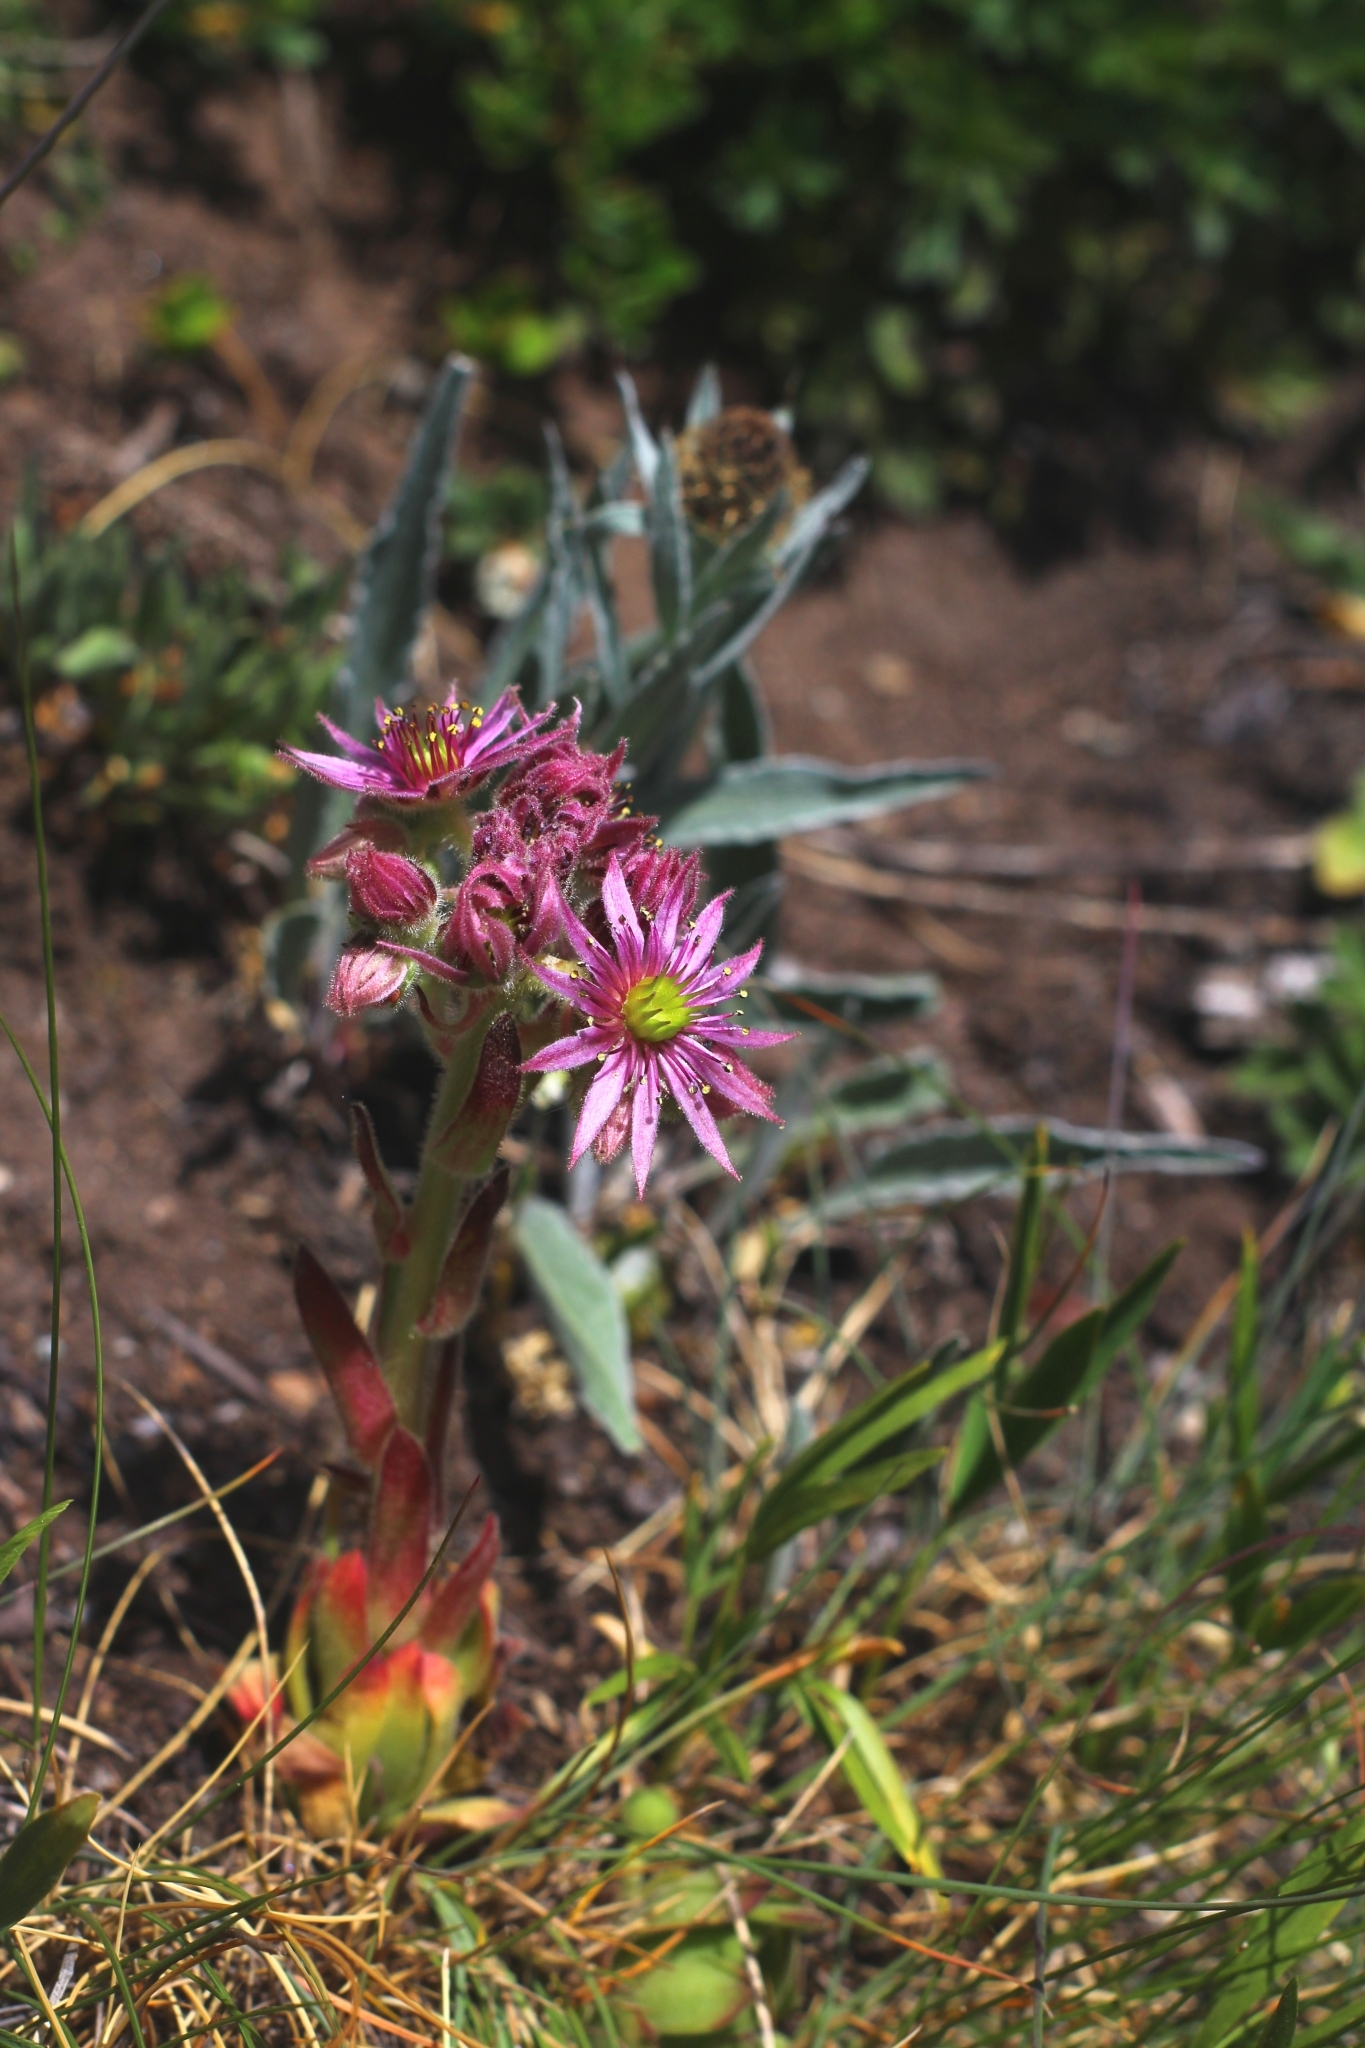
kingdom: Plantae
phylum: Tracheophyta
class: Magnoliopsida
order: Saxifragales
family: Crassulaceae
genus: Sempervivum
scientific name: Sempervivum montanum
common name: Mountain house-leek
